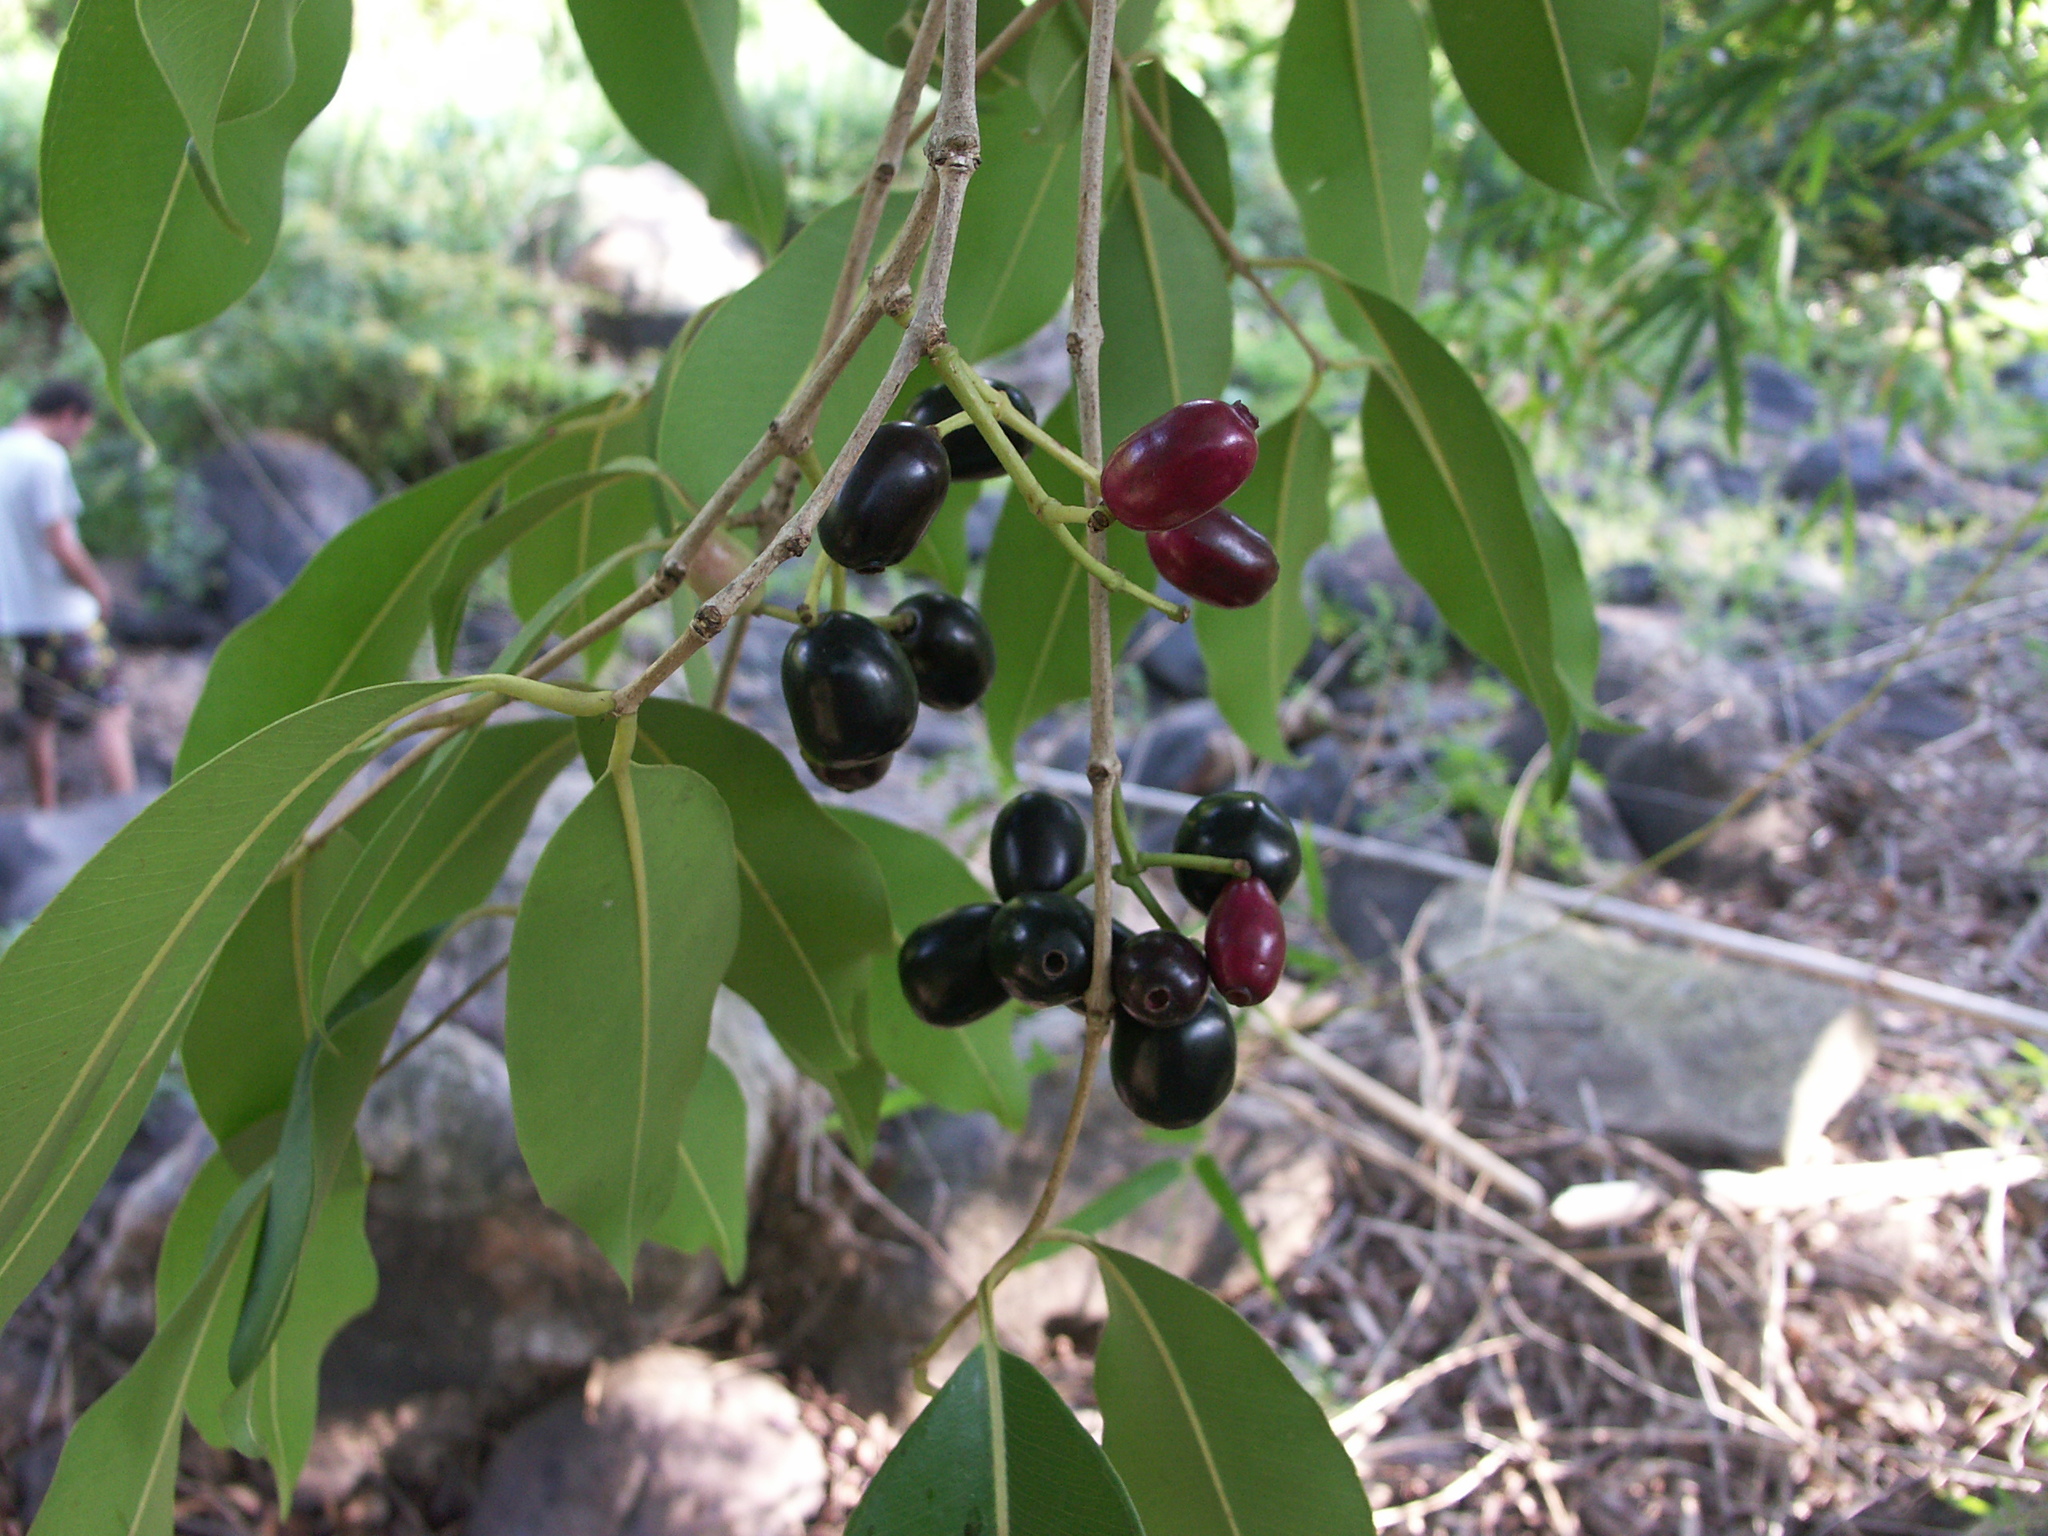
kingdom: Plantae
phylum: Tracheophyta
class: Magnoliopsida
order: Myrtales
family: Myrtaceae
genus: Syzygium
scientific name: Syzygium cumini
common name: Java plum
